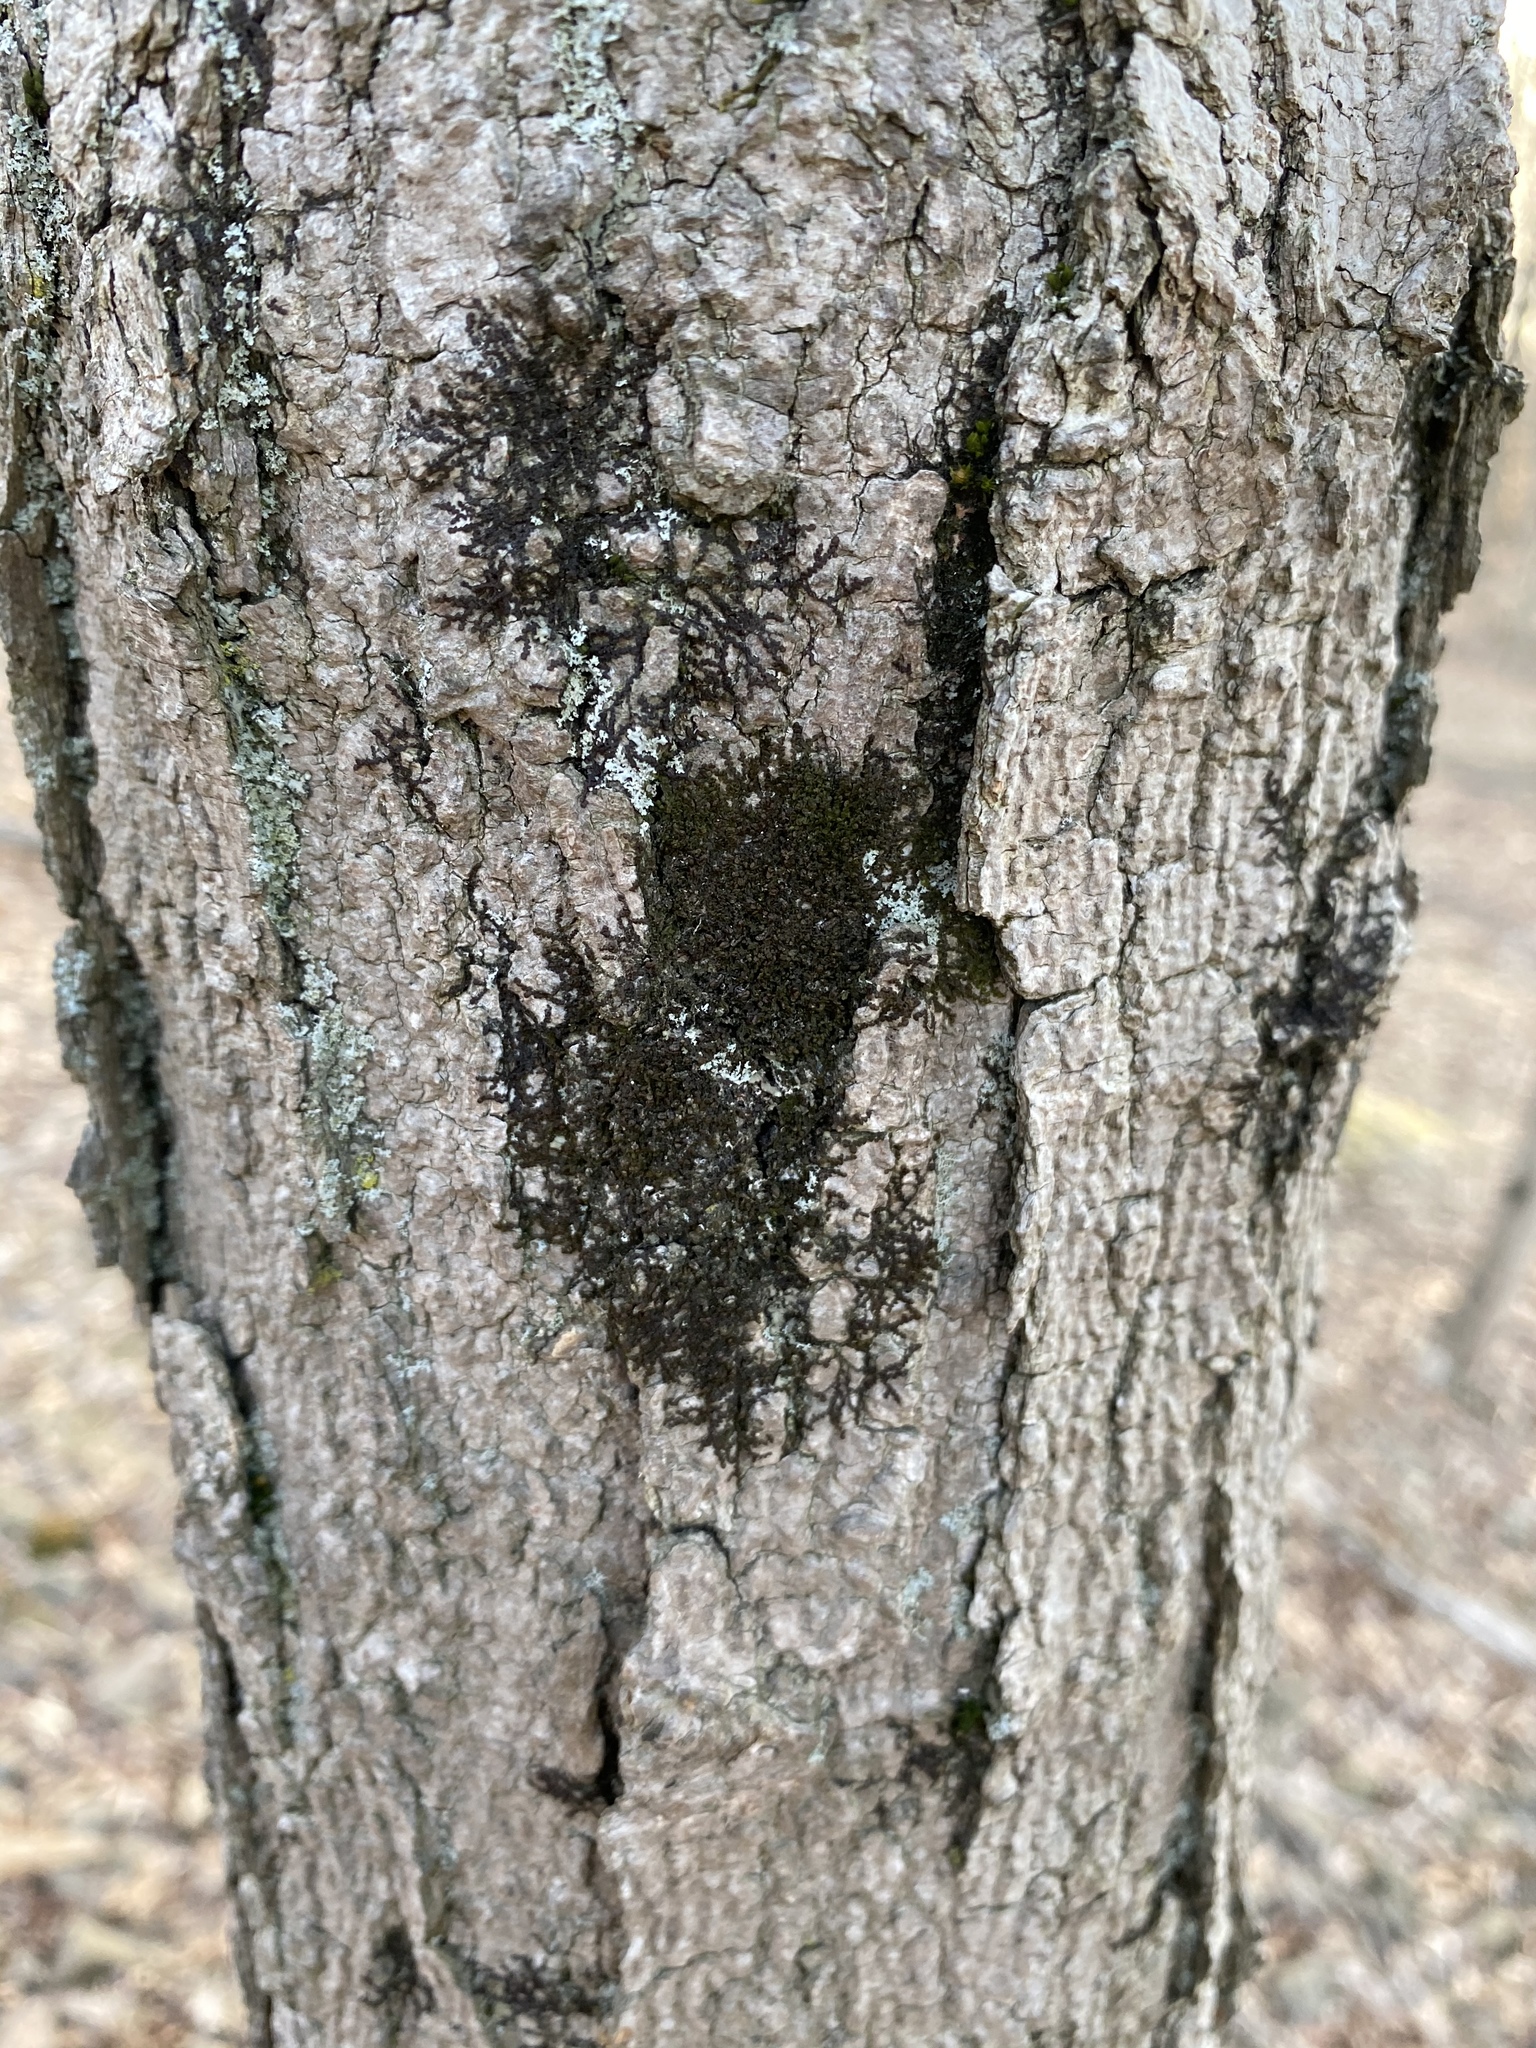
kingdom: Plantae
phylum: Marchantiophyta
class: Jungermanniopsida
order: Porellales
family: Frullaniaceae
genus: Frullania
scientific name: Frullania
